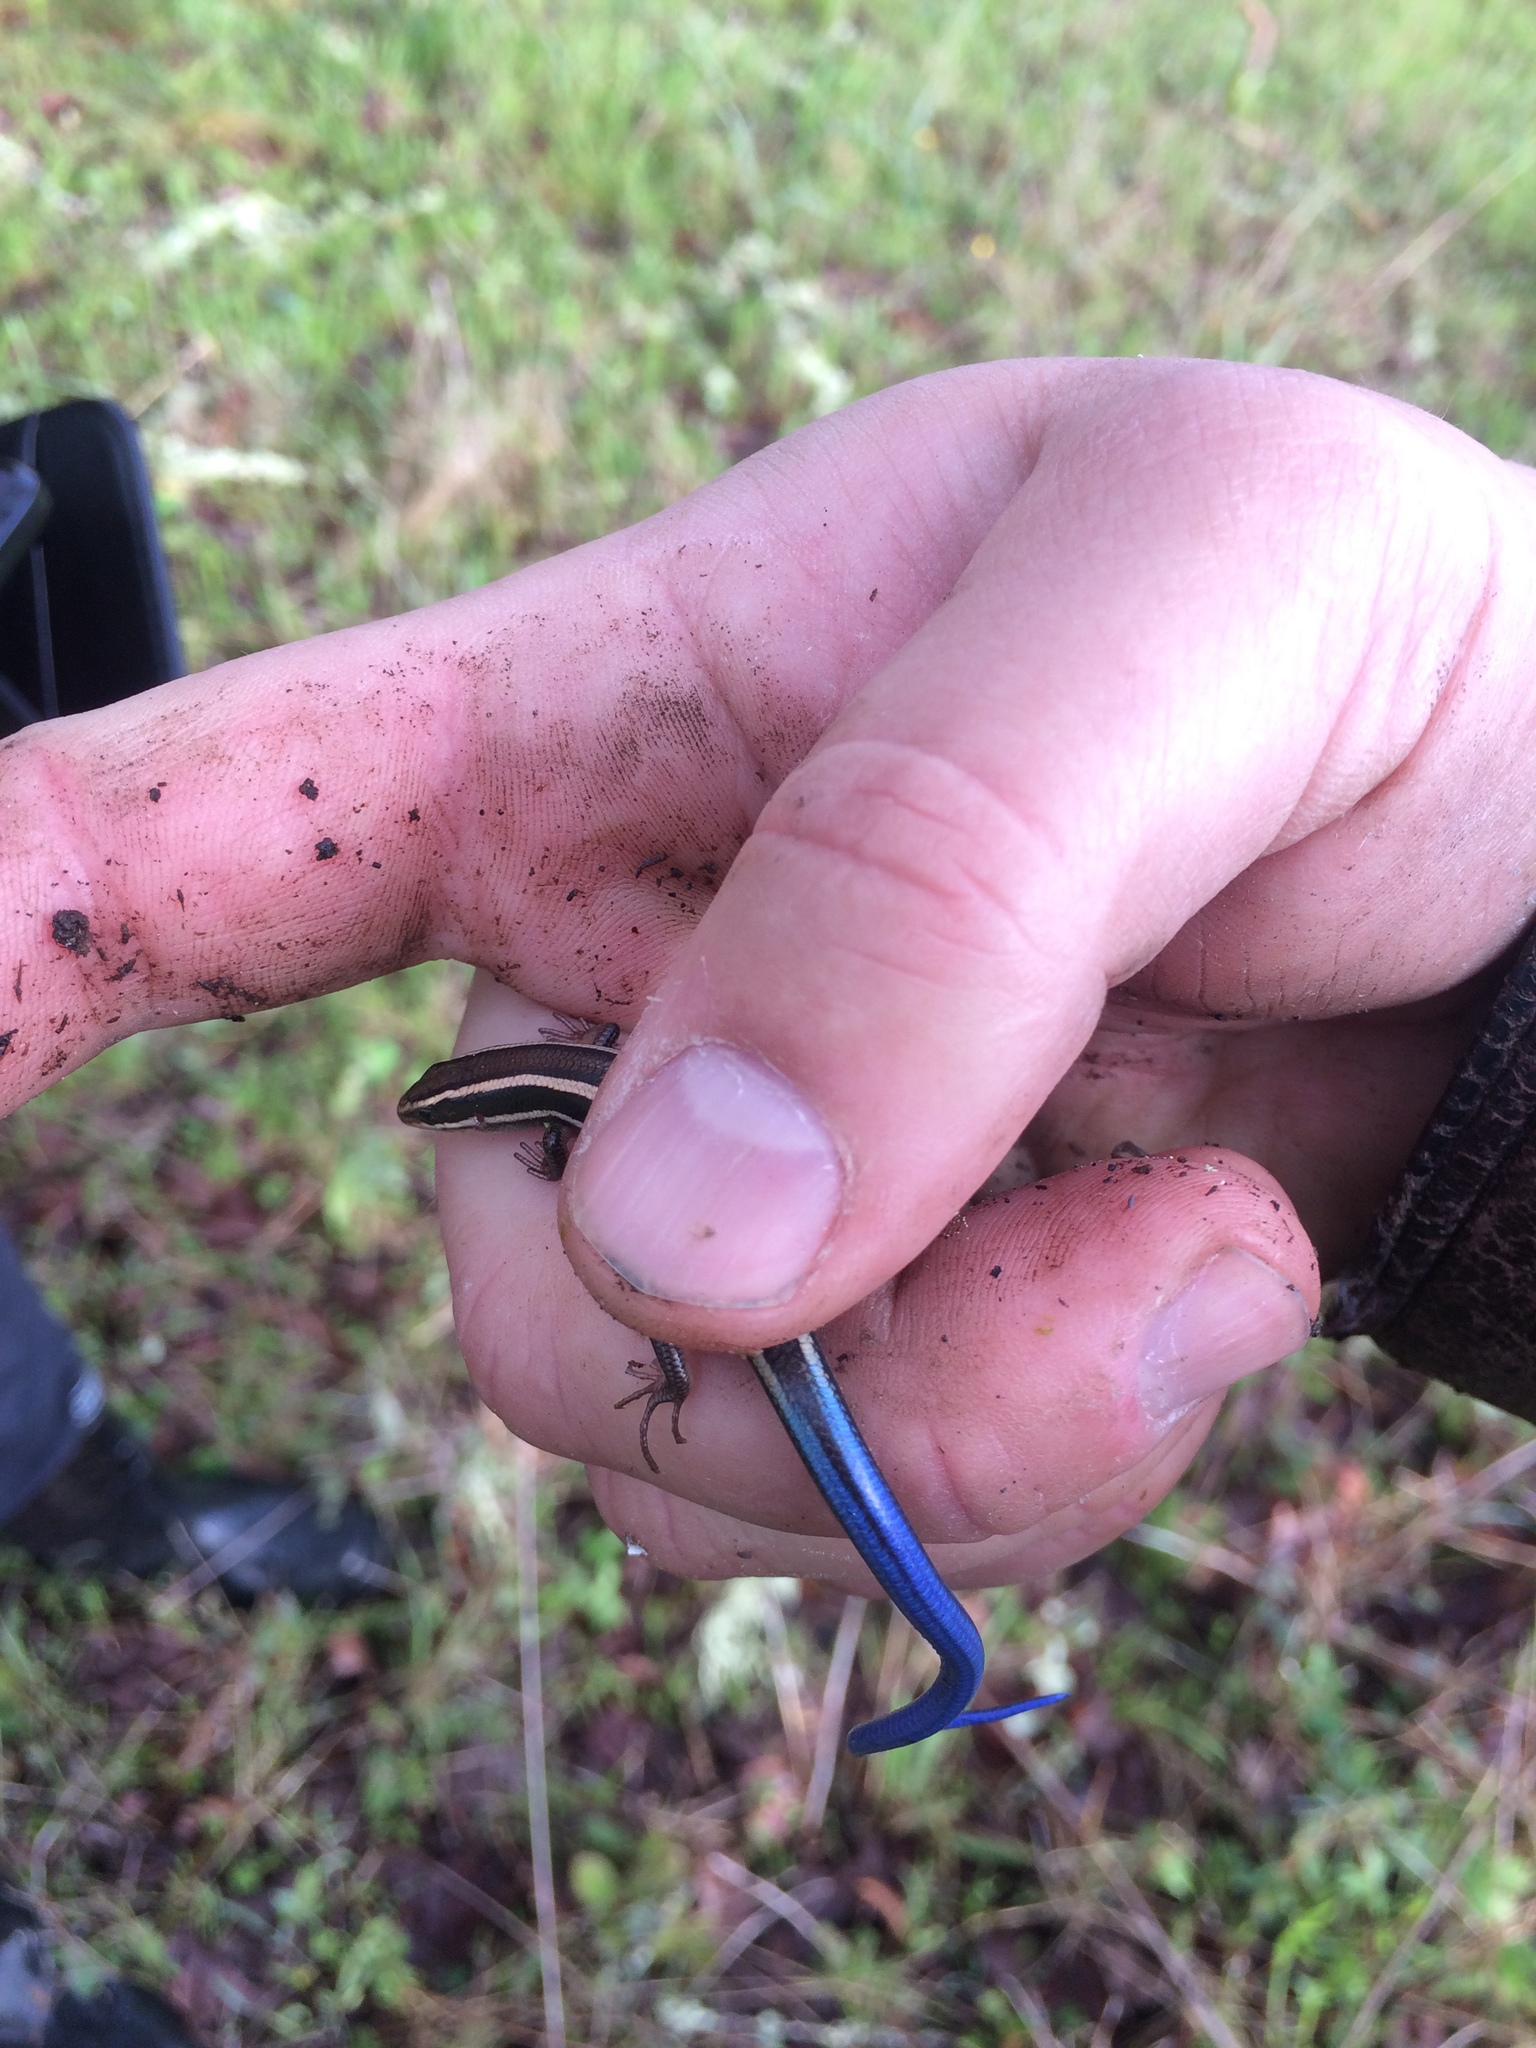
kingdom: Animalia
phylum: Chordata
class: Squamata
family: Scincidae
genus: Plestiodon
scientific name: Plestiodon skiltonianus
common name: Coronado island skink [interparietalis]
